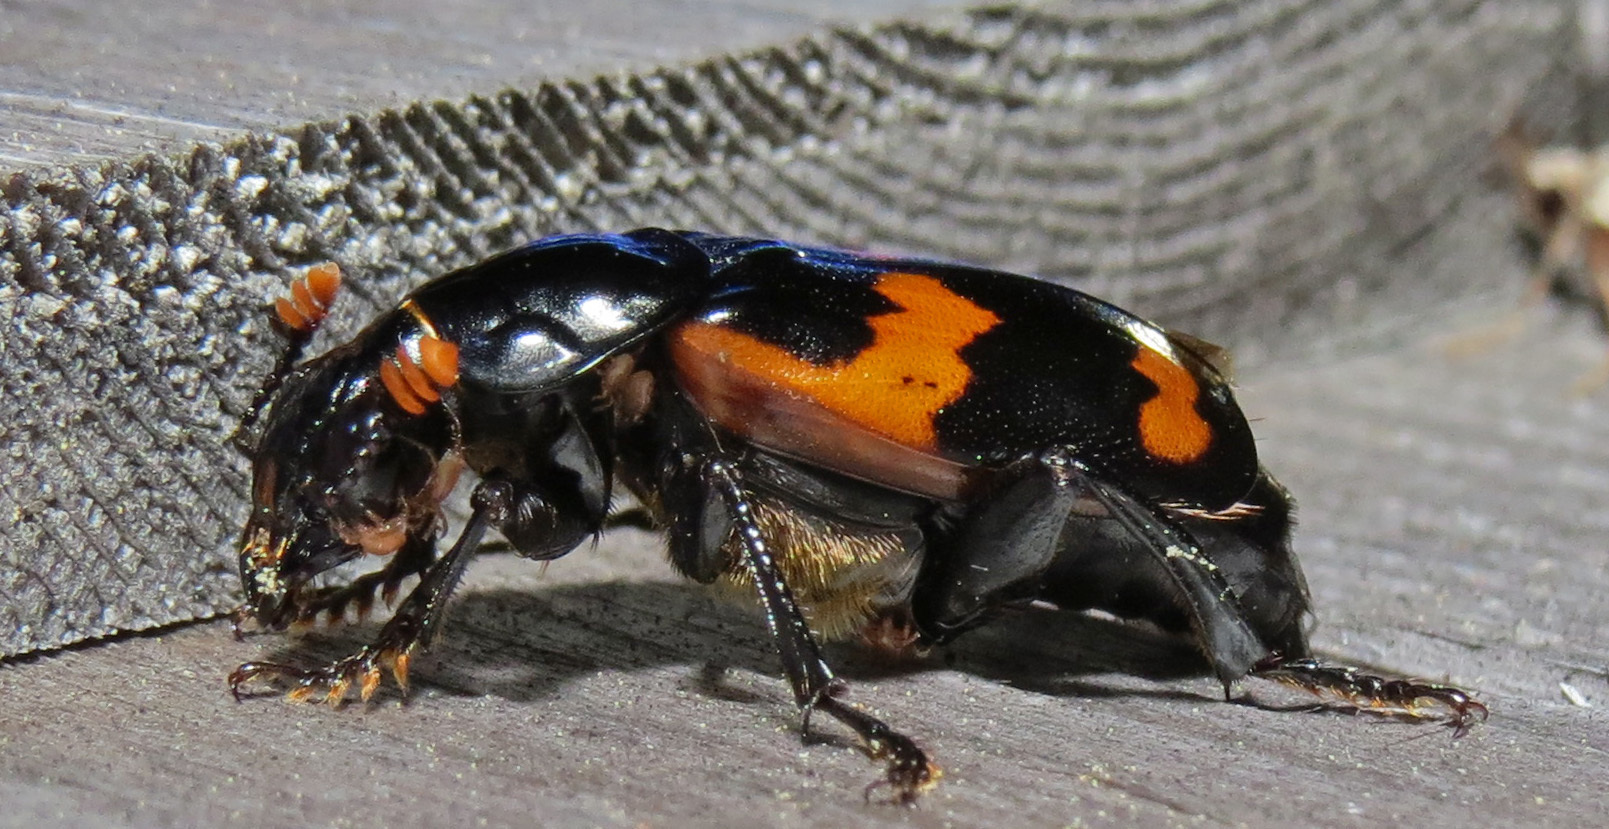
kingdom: Animalia
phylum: Arthropoda
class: Insecta
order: Coleoptera
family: Staphylinidae
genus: Nicrophorus
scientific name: Nicrophorus sayi
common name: Say's burying beetle
